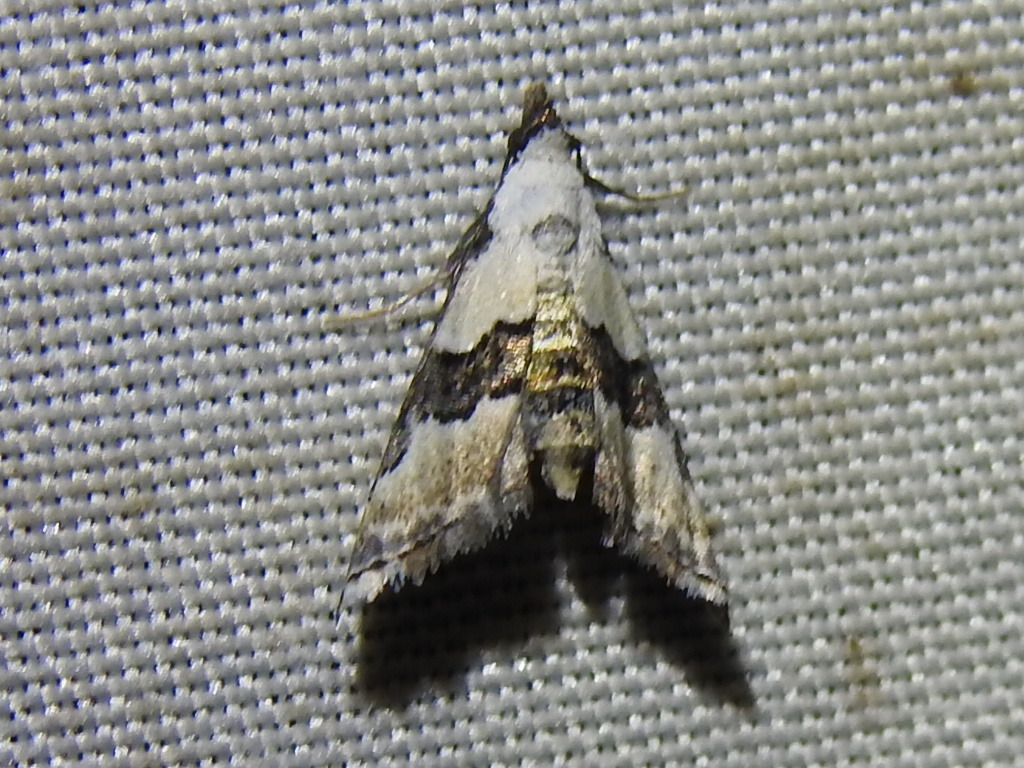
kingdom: Animalia
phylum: Arthropoda
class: Insecta
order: Lepidoptera
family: Noctuidae
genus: Nigetia
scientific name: Nigetia formosalis
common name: Thin-winged owlet
